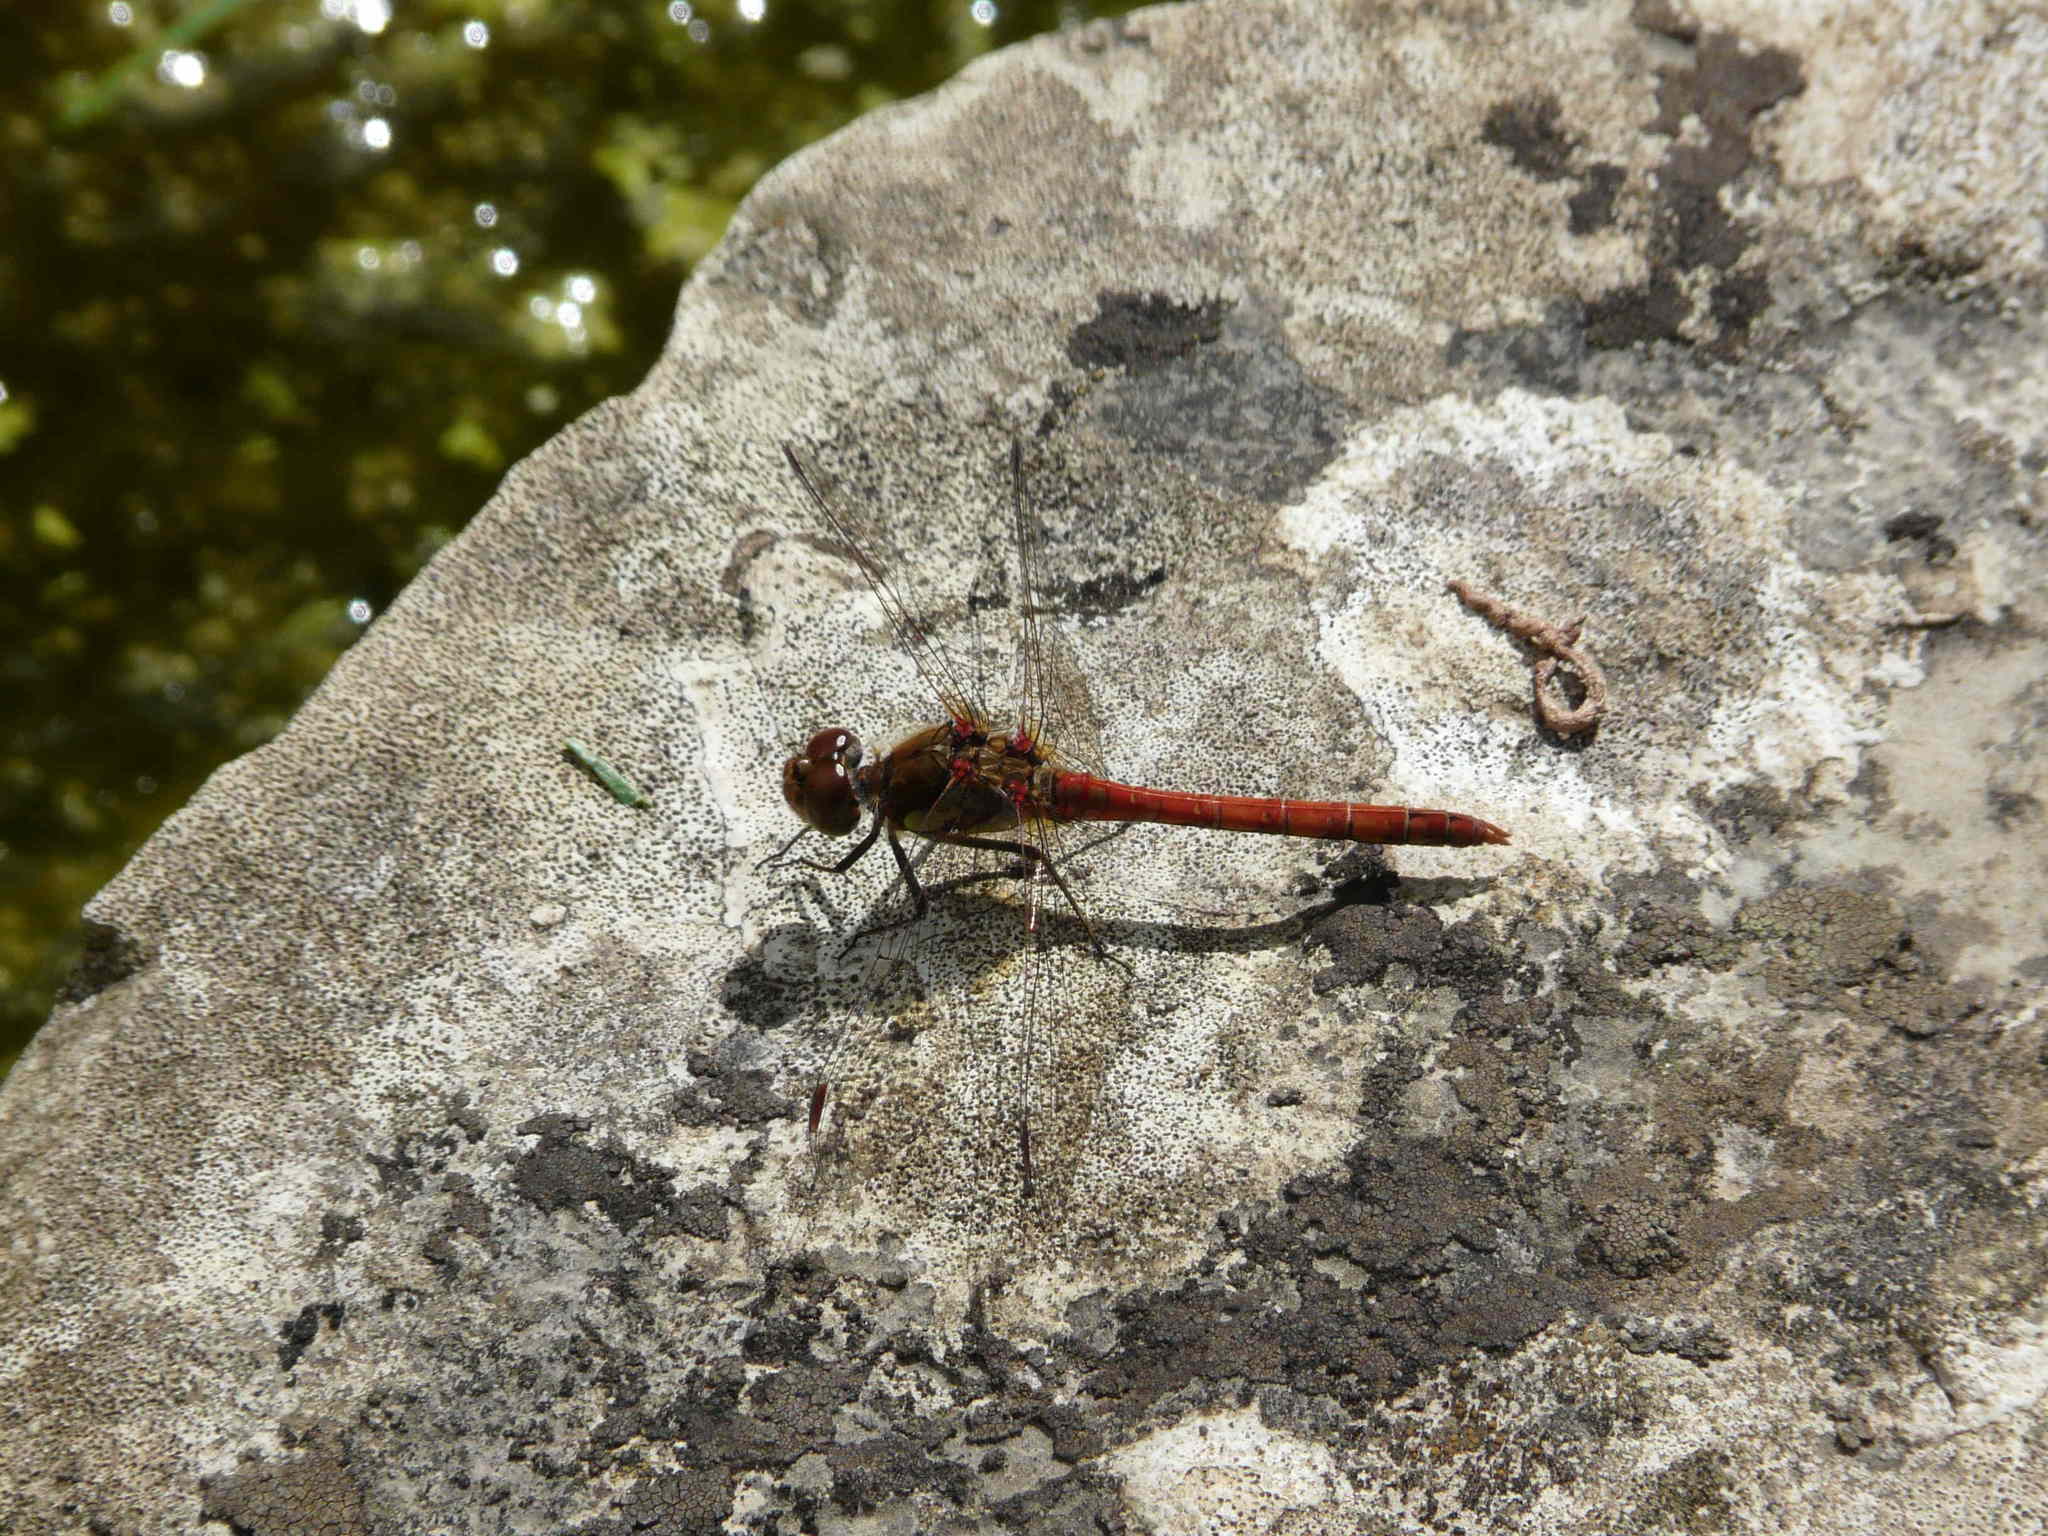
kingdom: Animalia
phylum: Arthropoda
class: Insecta
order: Odonata
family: Libellulidae
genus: Sympetrum
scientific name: Sympetrum striolatum
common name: Common darter
